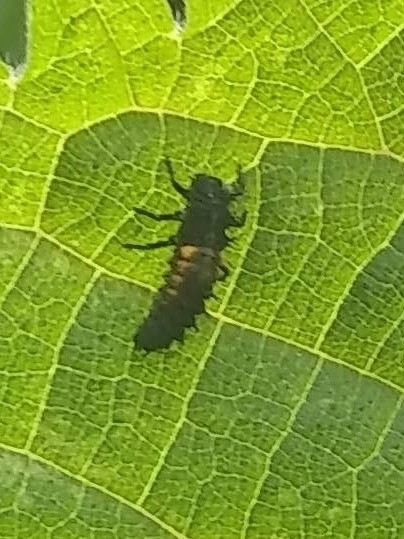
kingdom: Animalia
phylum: Arthropoda
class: Insecta
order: Coleoptera
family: Coccinellidae
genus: Harmonia
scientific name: Harmonia axyridis
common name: Harlequin ladybird
